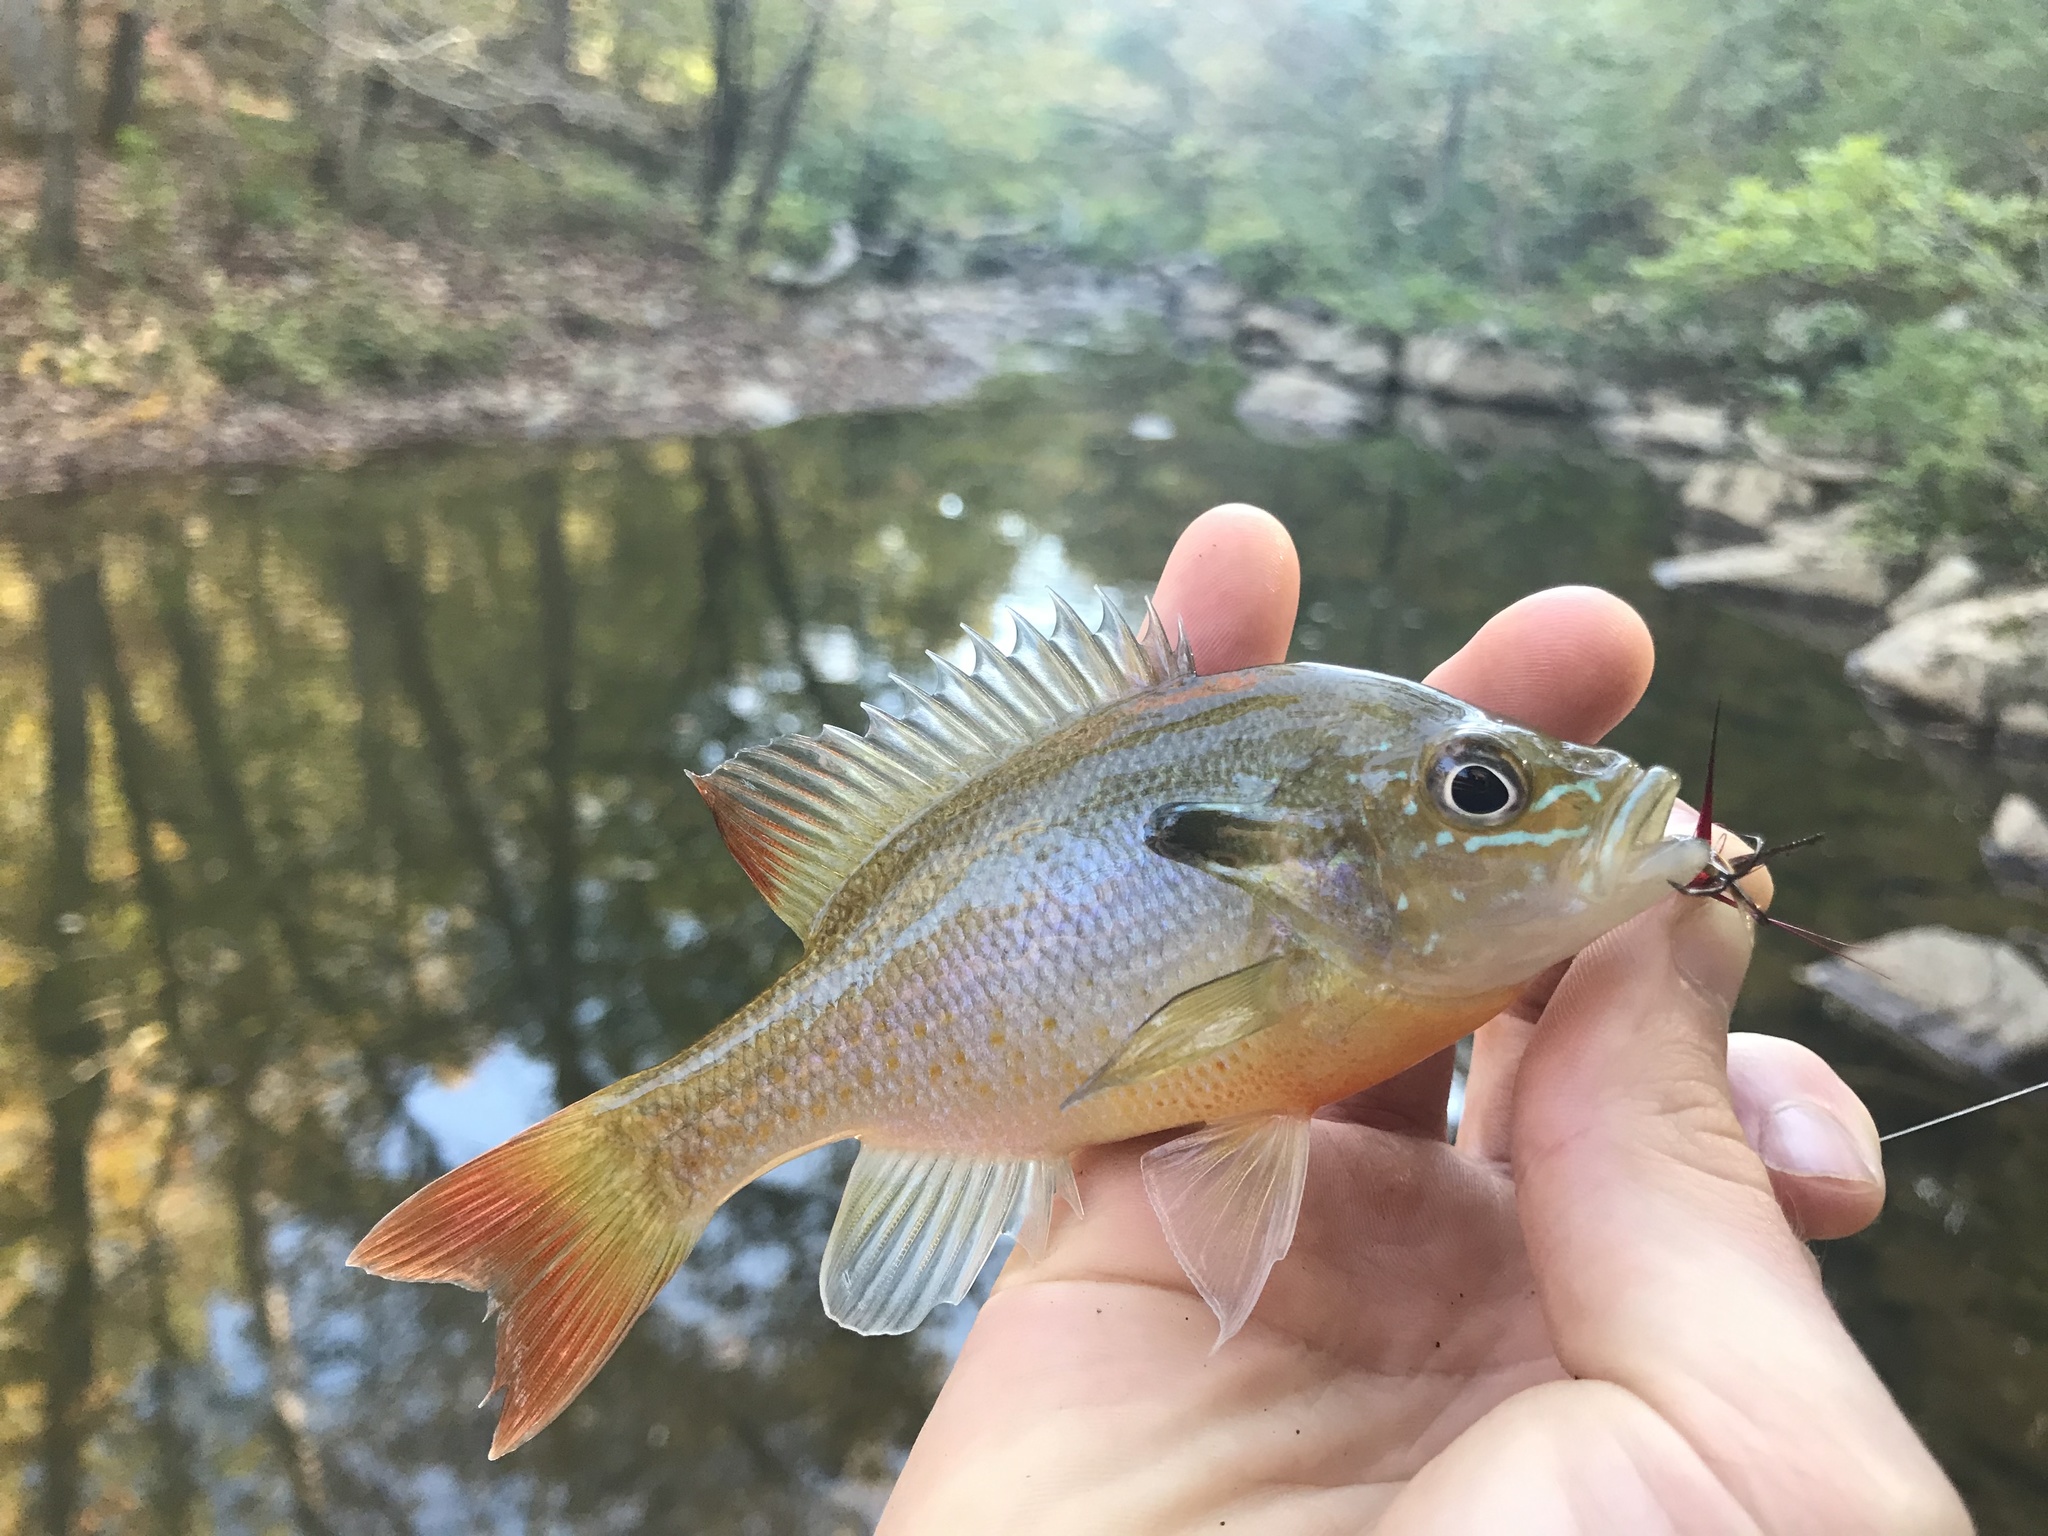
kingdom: Animalia
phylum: Chordata
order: Perciformes
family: Centrarchidae
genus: Lepomis
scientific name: Lepomis auritus
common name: Redbreast sunfish
